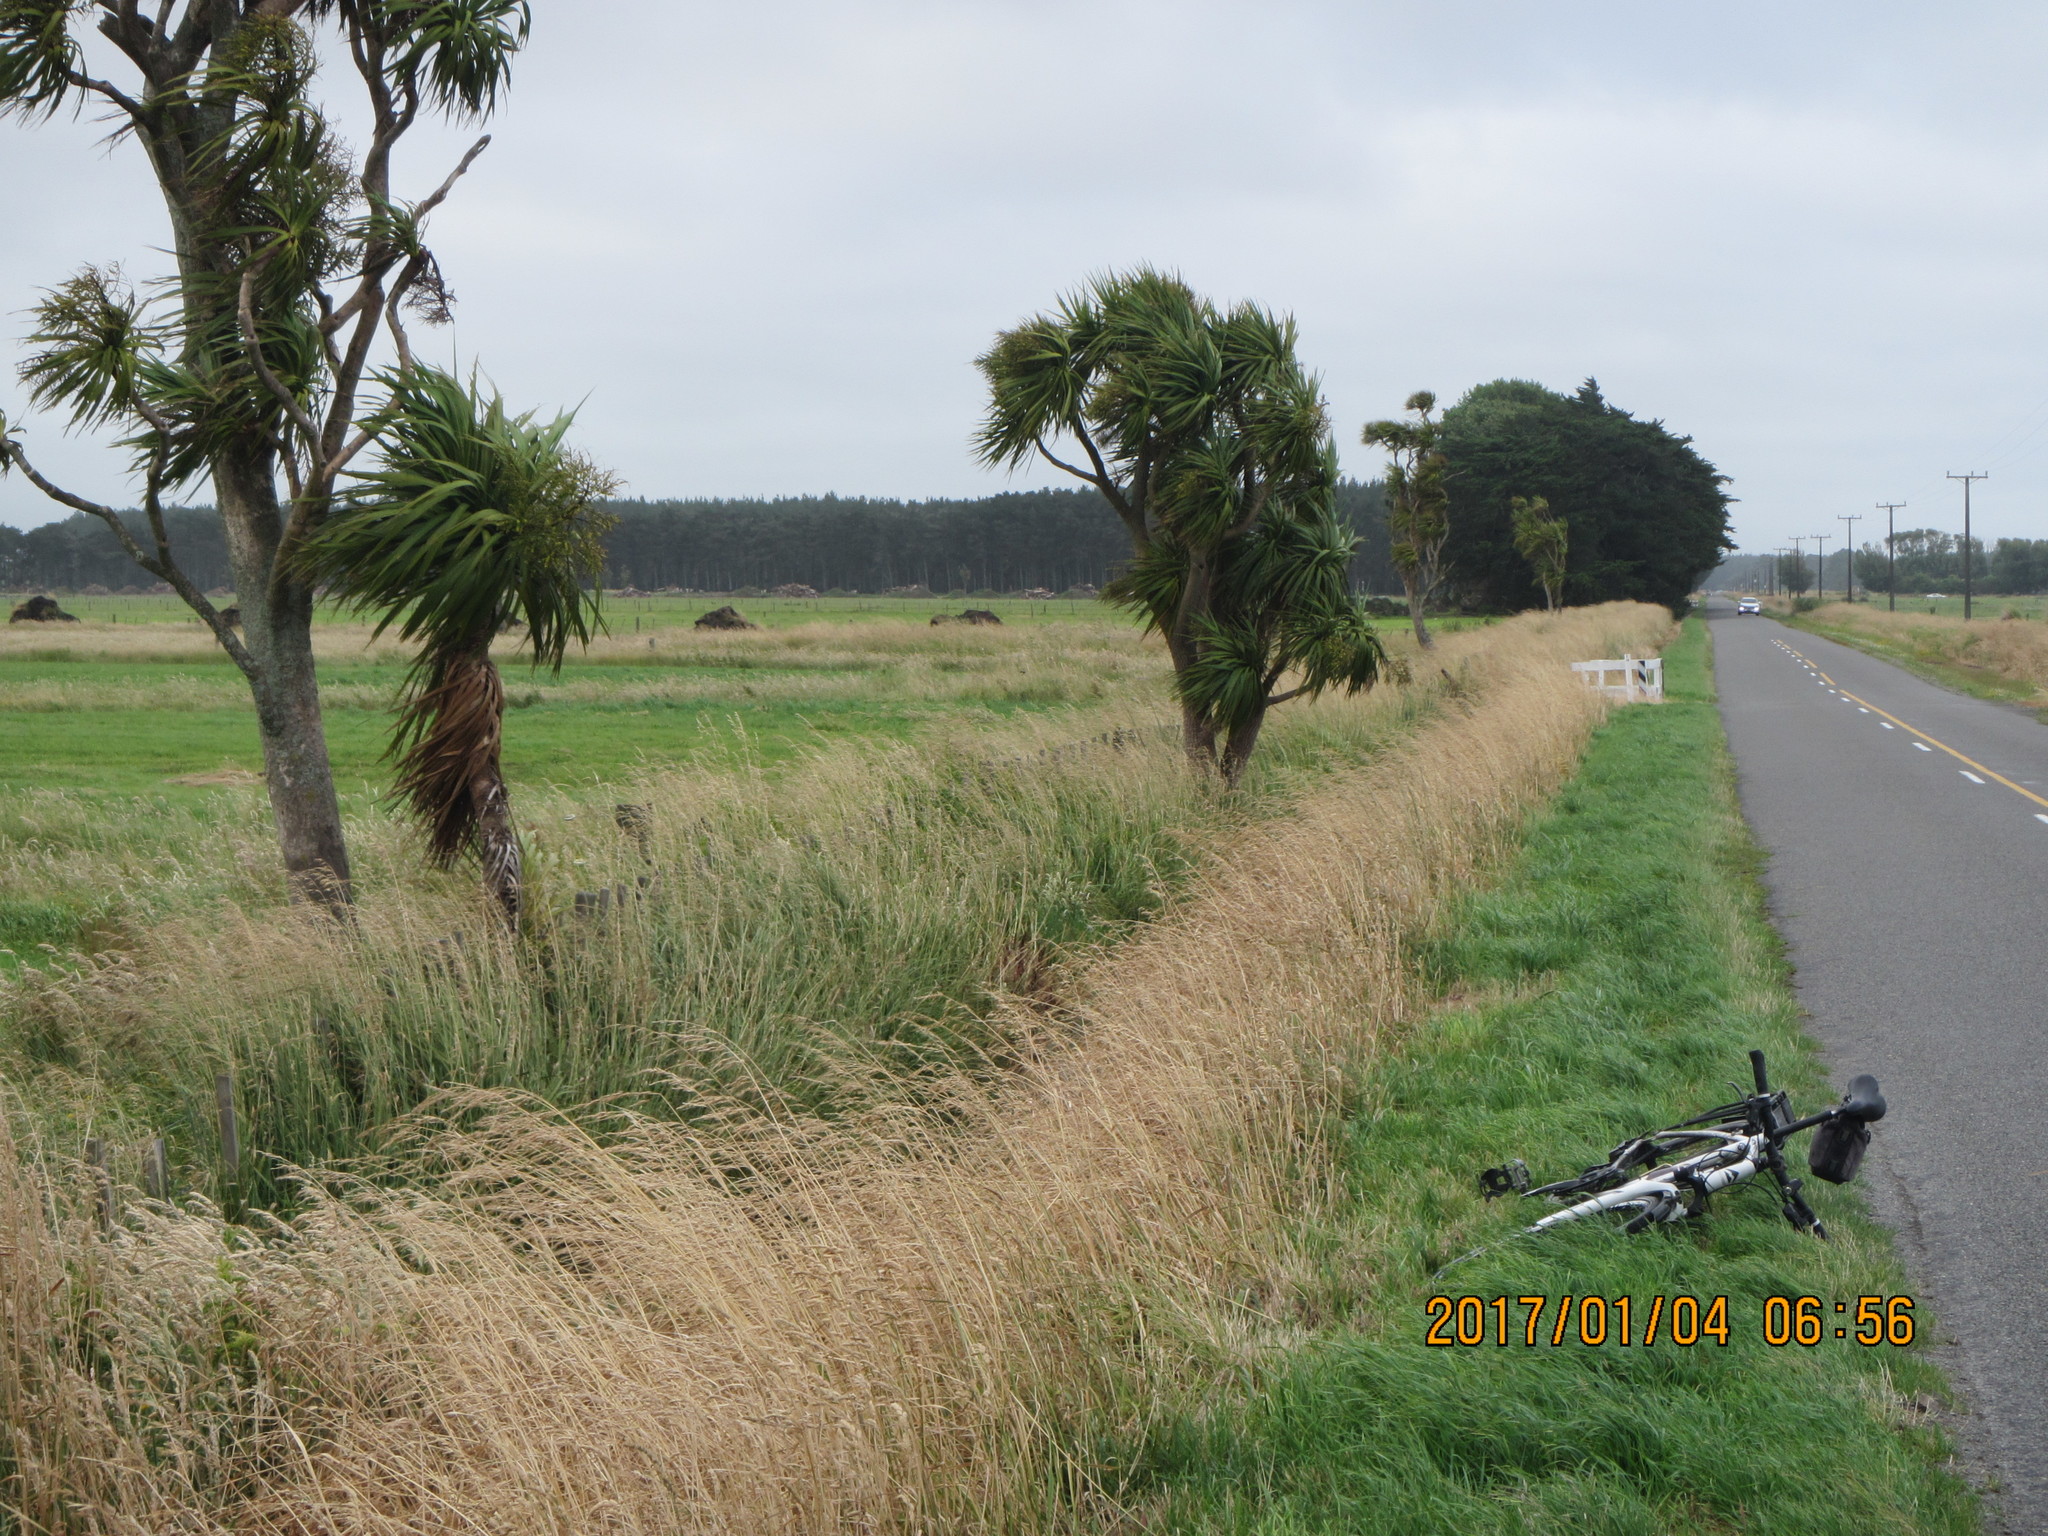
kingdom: Plantae
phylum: Tracheophyta
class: Liliopsida
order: Asparagales
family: Asparagaceae
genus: Cordyline
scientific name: Cordyline australis
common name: Cabbage-palm
